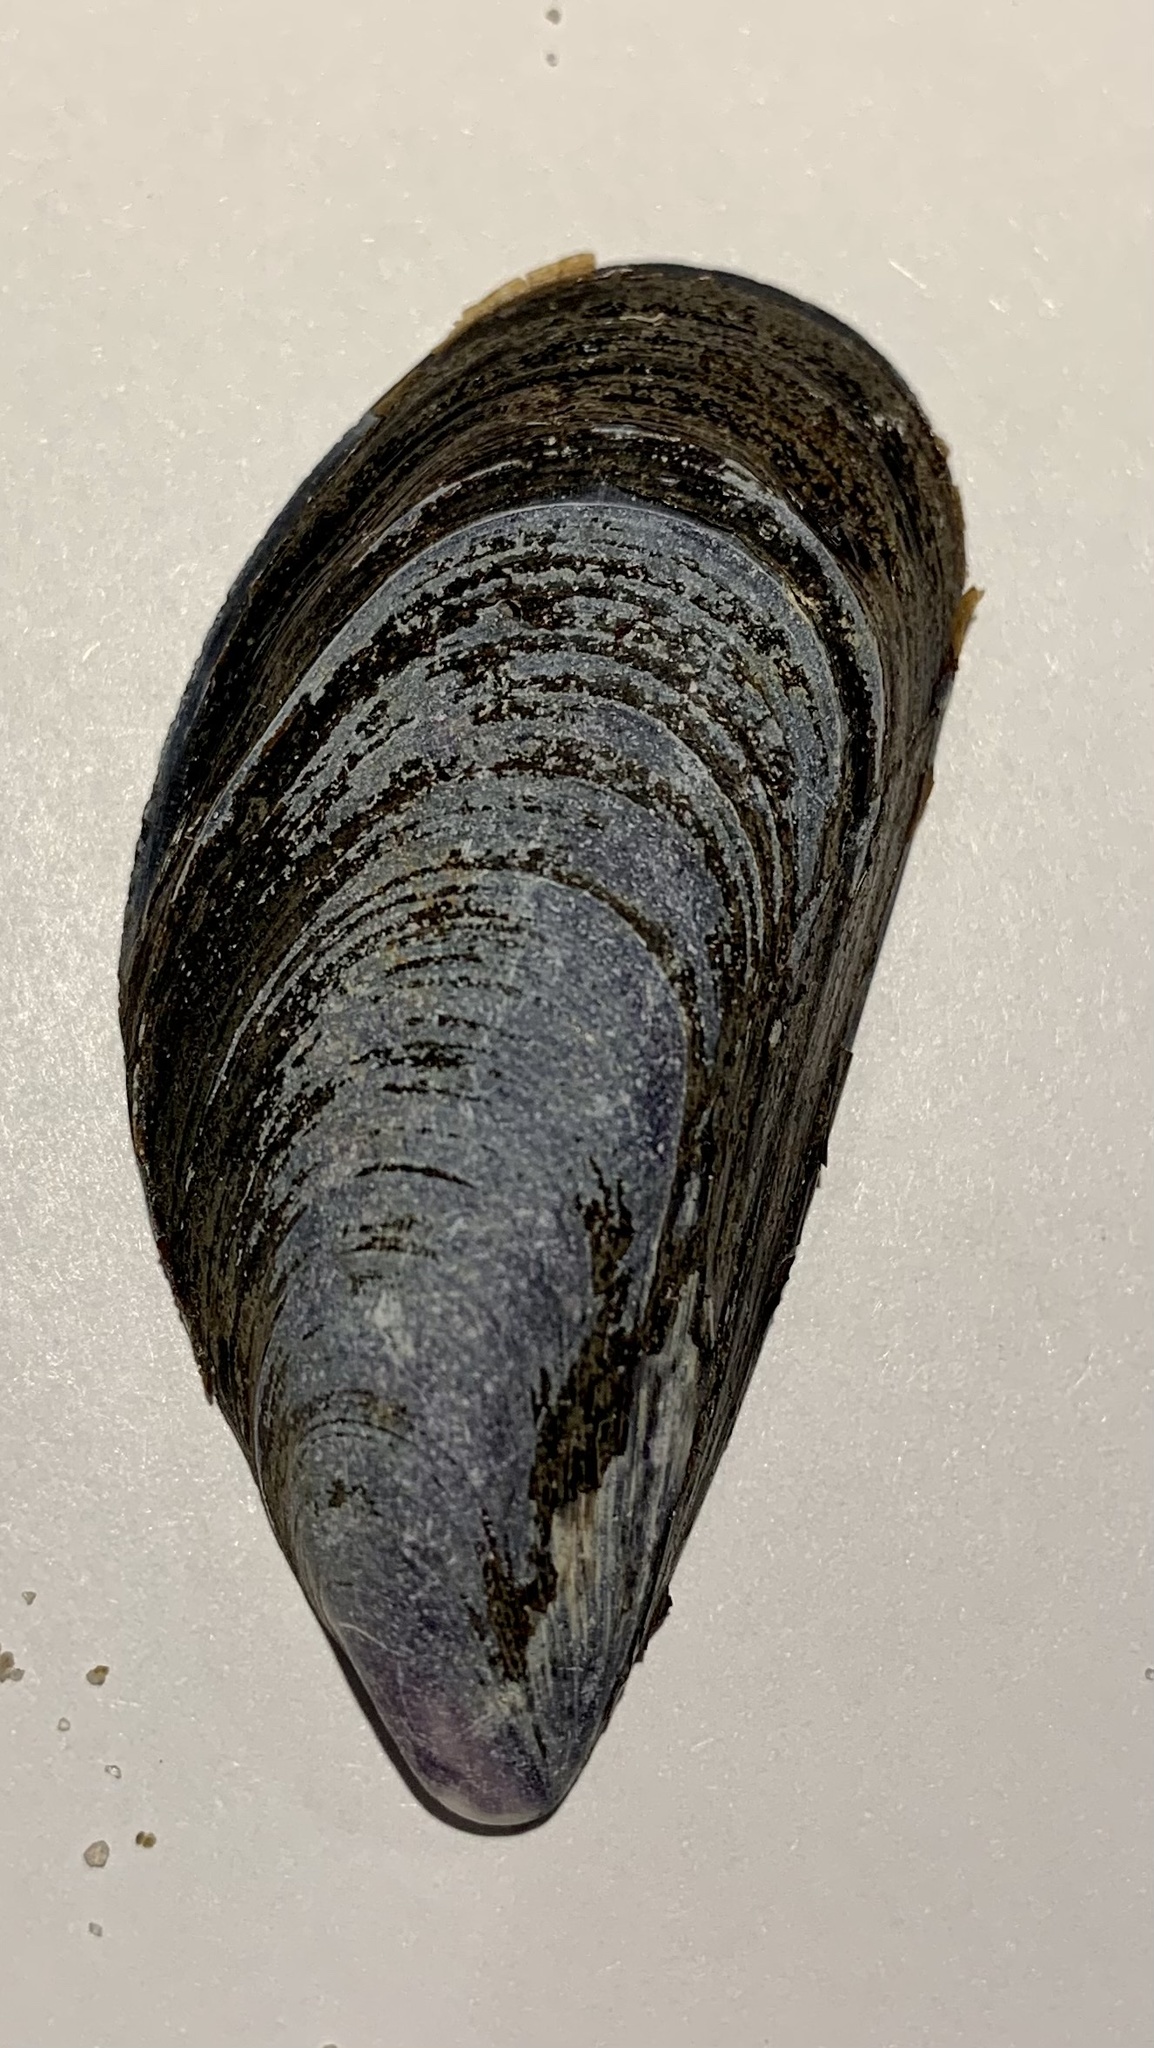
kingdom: Animalia
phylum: Mollusca
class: Bivalvia
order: Mytilida
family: Mytilidae
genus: Mytilus
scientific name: Mytilus edulis
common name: Blue mussel
